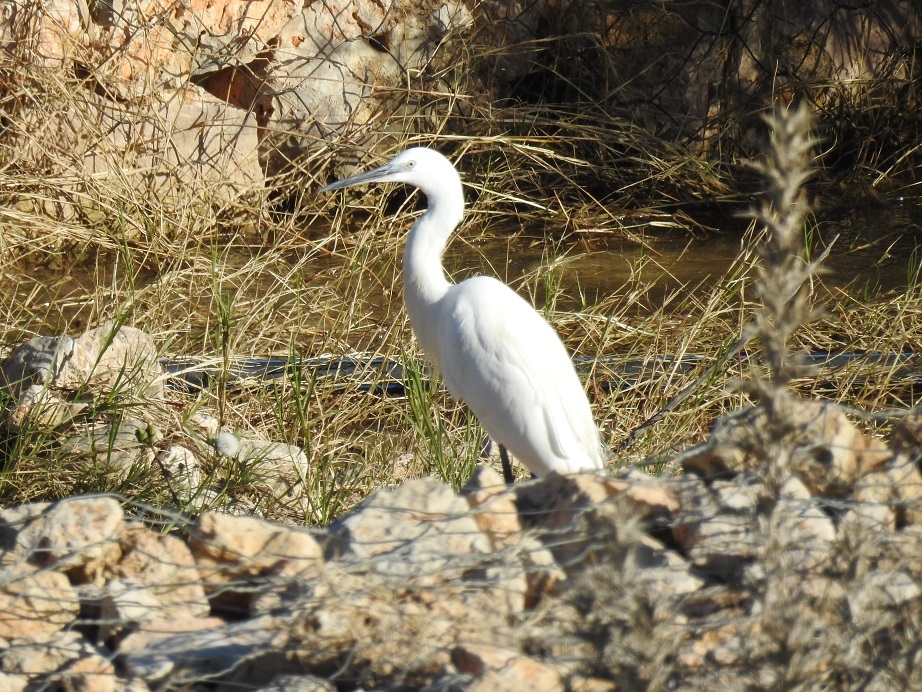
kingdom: Animalia
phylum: Chordata
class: Aves
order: Pelecaniformes
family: Ardeidae
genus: Egretta
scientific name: Egretta garzetta
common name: Little egret
